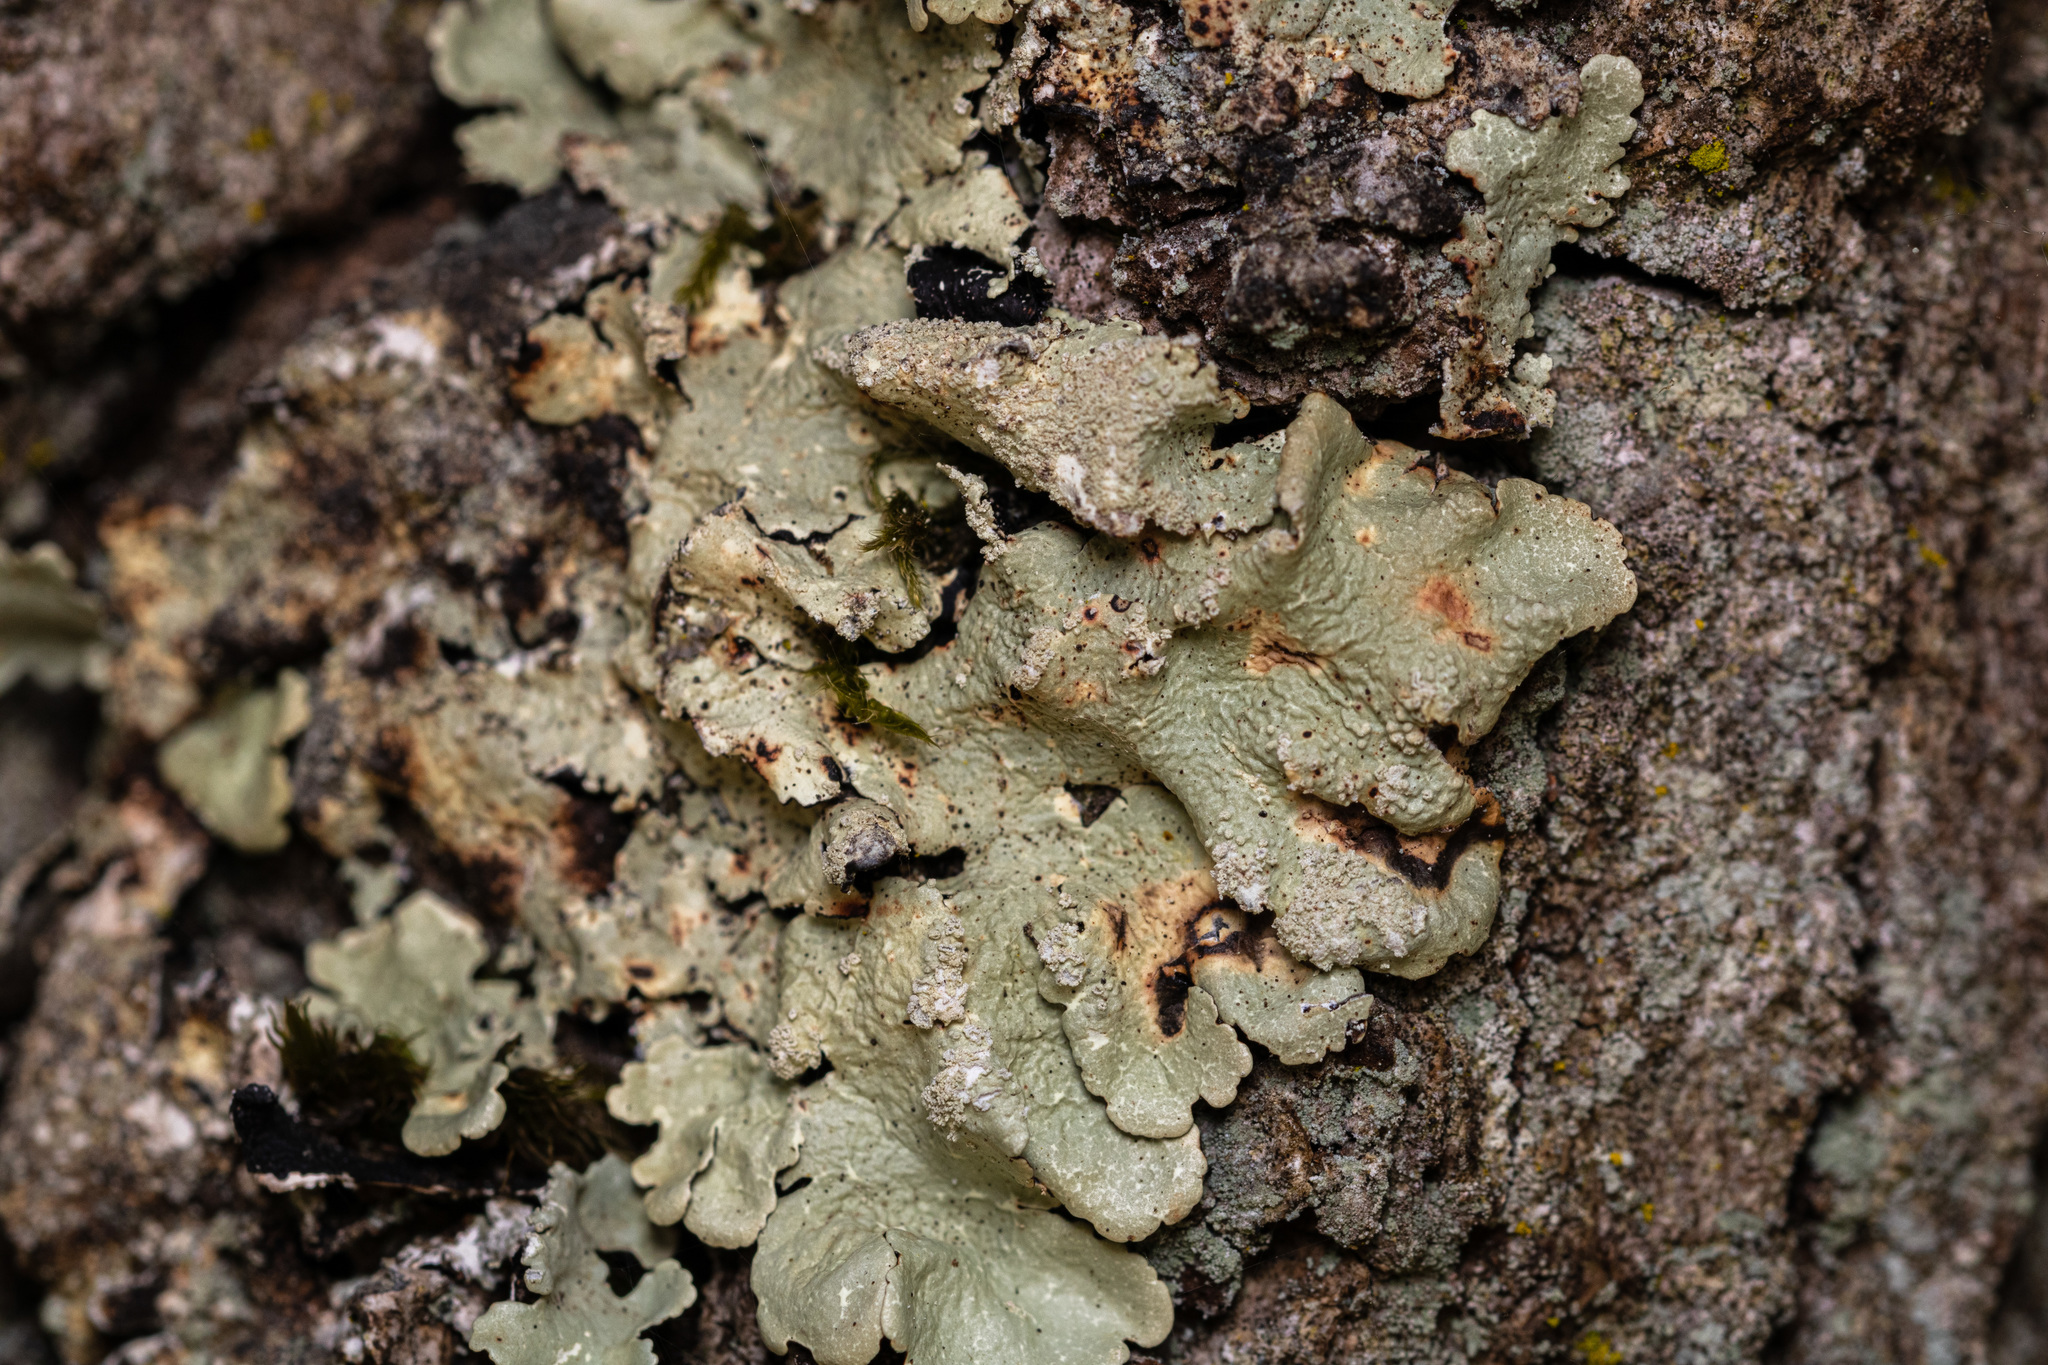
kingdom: Fungi
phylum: Ascomycota
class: Lecanoromycetes
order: Lecanorales
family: Parmeliaceae
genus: Flavoparmelia
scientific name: Flavoparmelia caperata
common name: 40-mile per hour lichen
